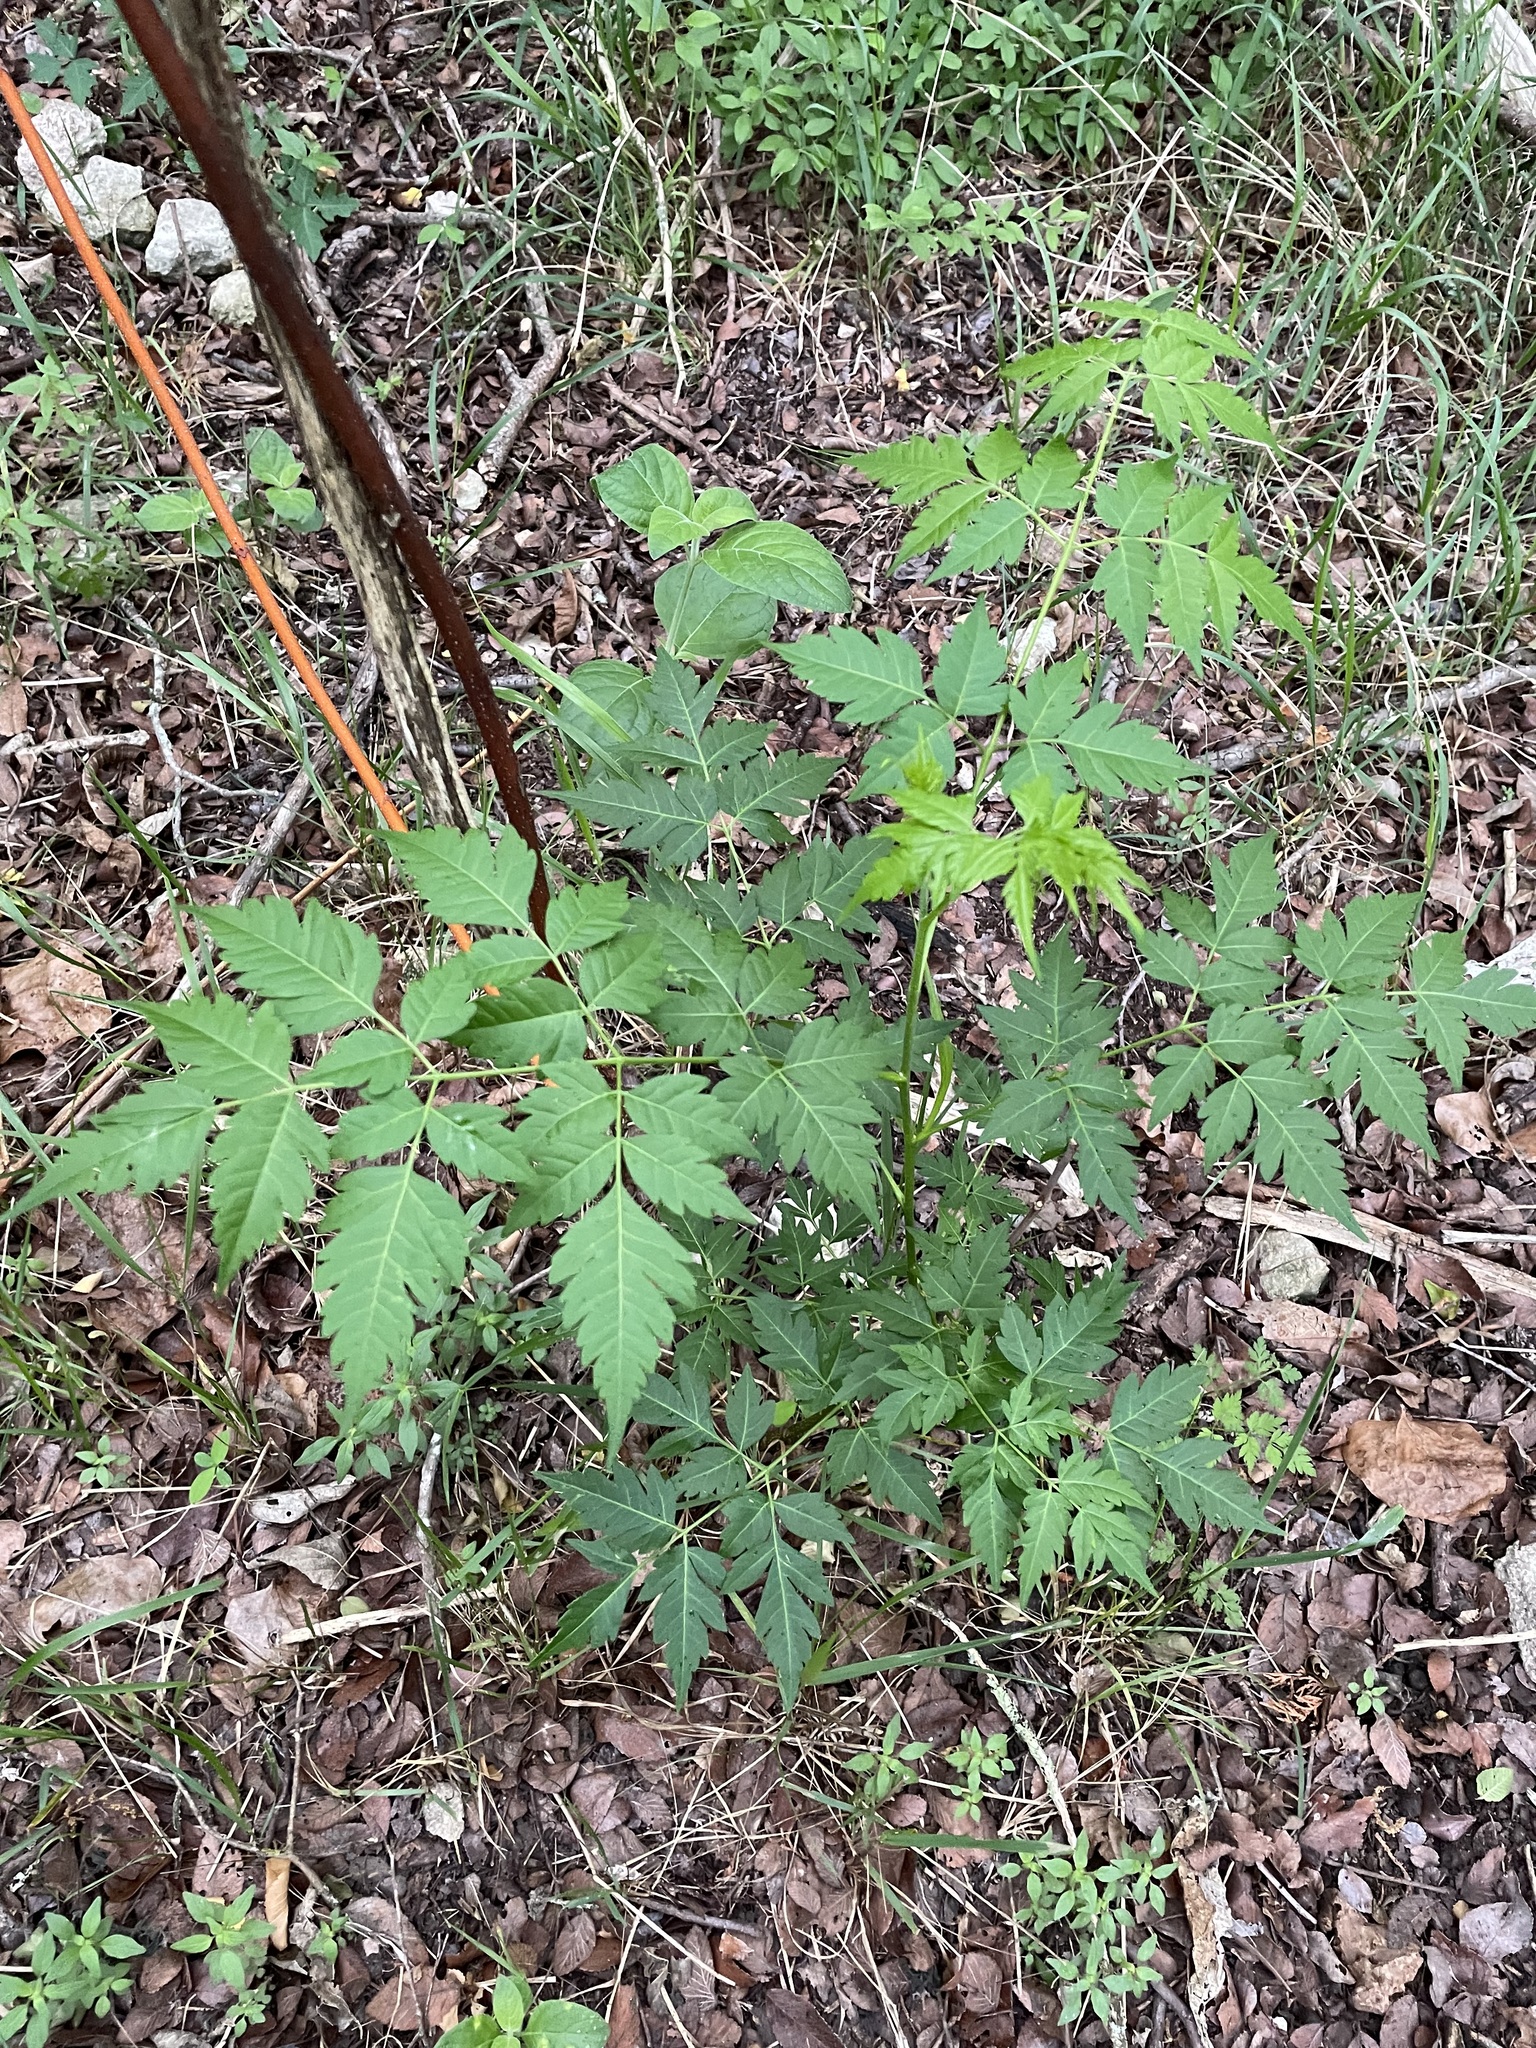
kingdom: Plantae
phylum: Tracheophyta
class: Magnoliopsida
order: Sapindales
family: Meliaceae
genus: Melia
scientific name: Melia azedarach
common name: Chinaberrytree
